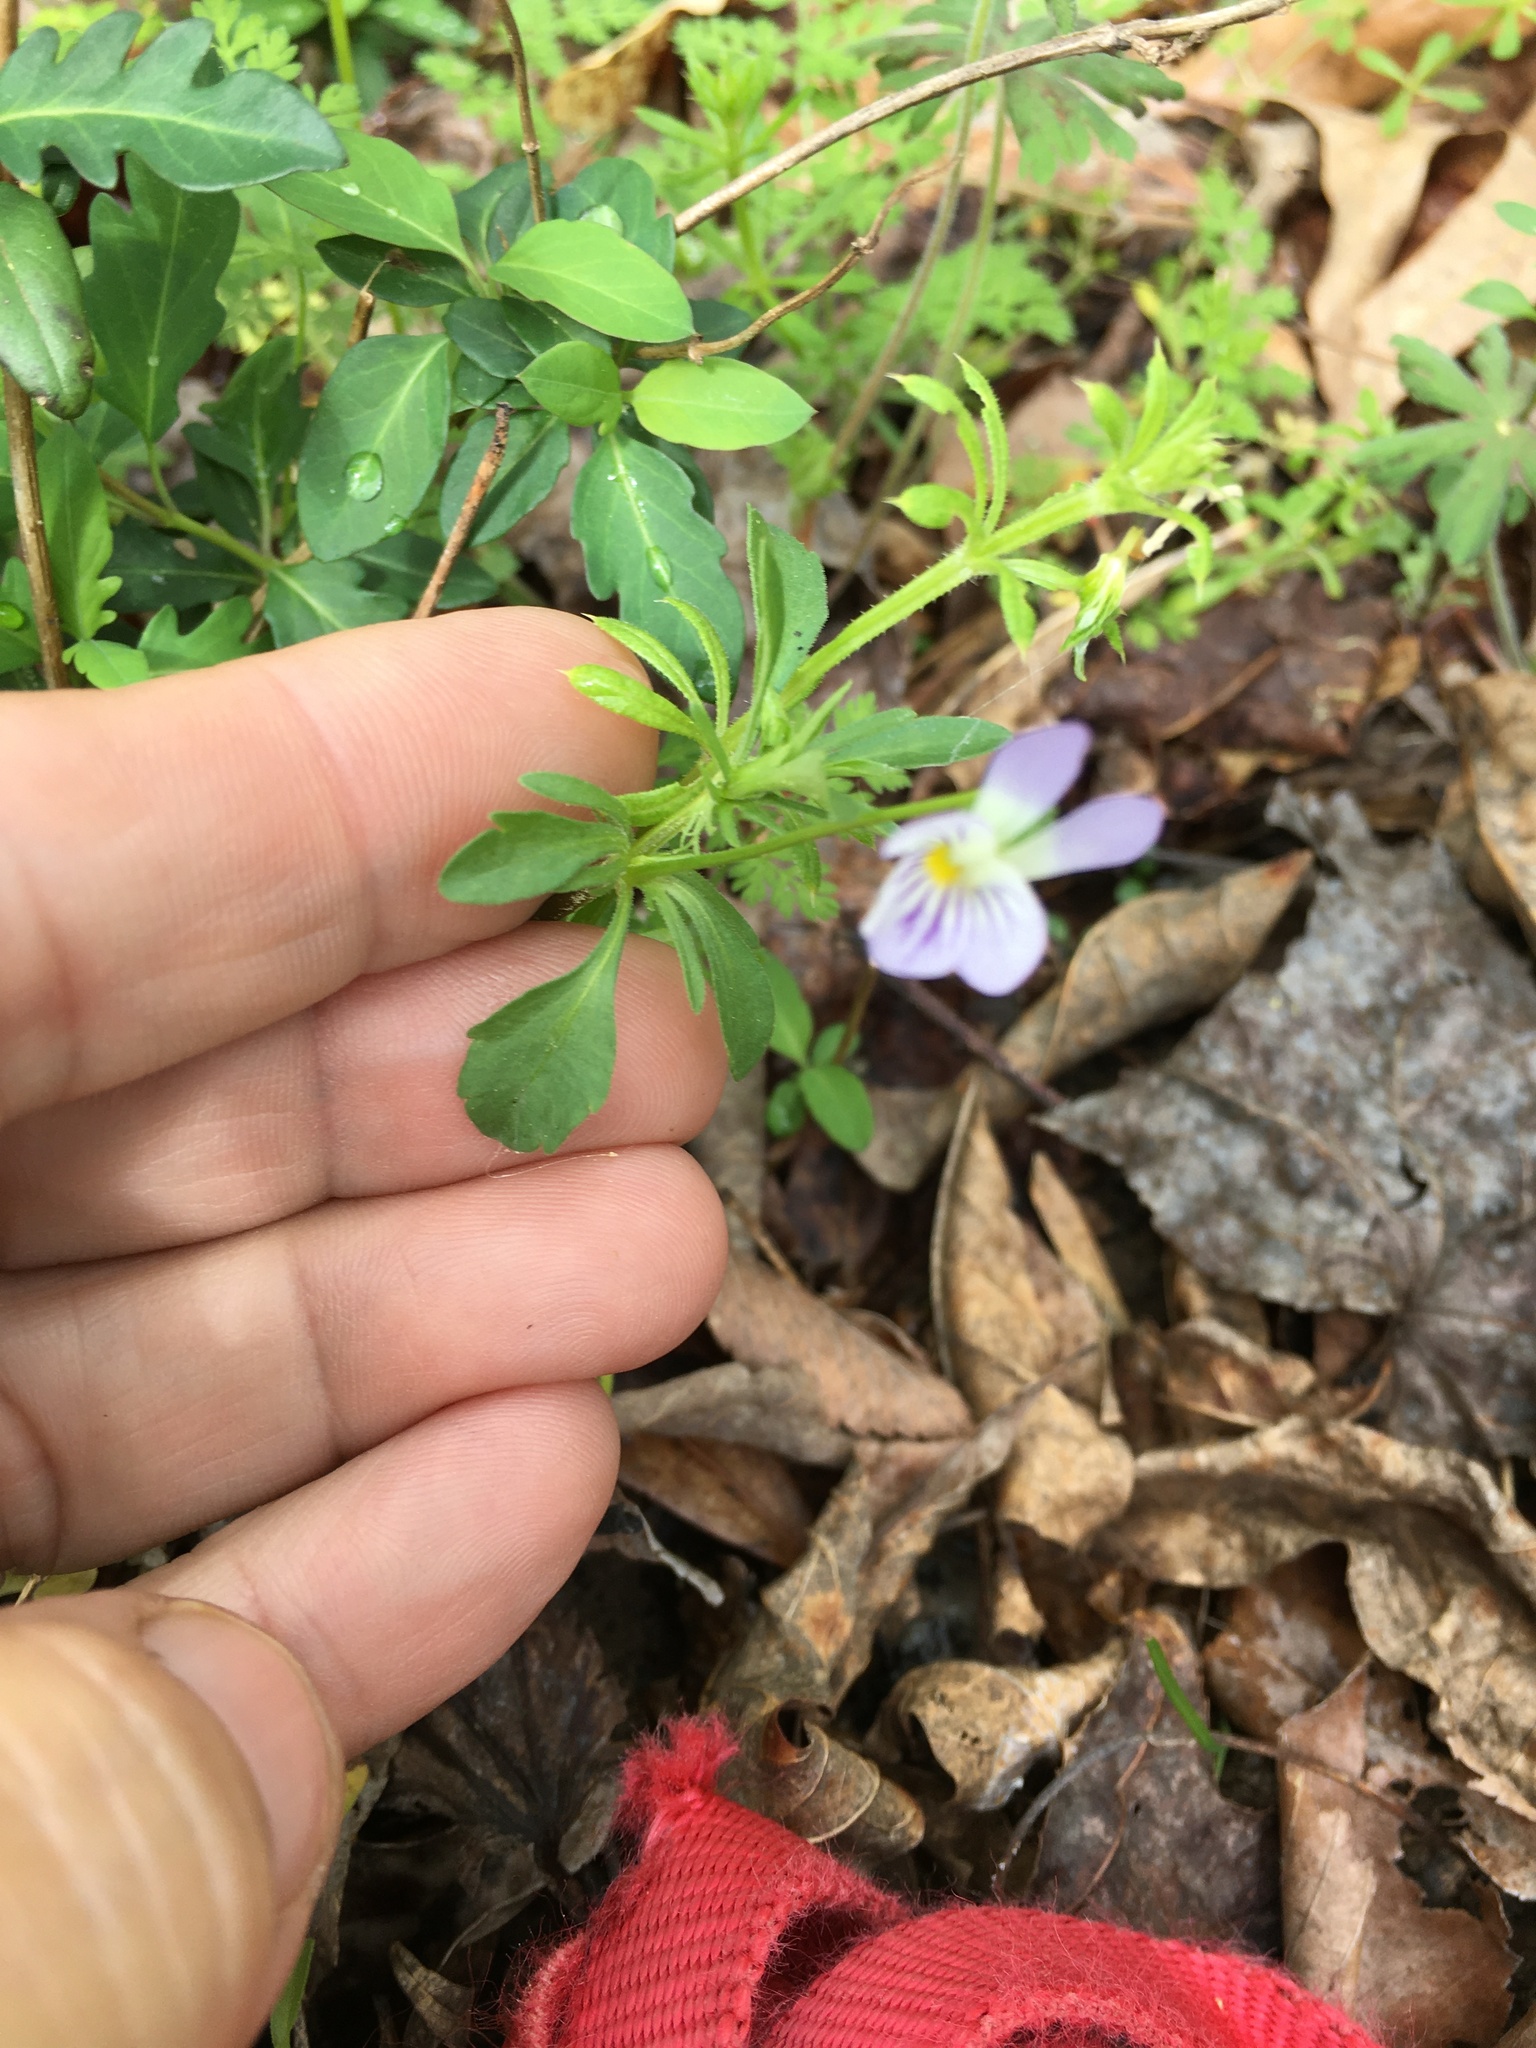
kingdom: Plantae
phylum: Tracheophyta
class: Magnoliopsida
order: Malpighiales
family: Violaceae
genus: Viola
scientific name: Viola rafinesquei
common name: American field pansy
